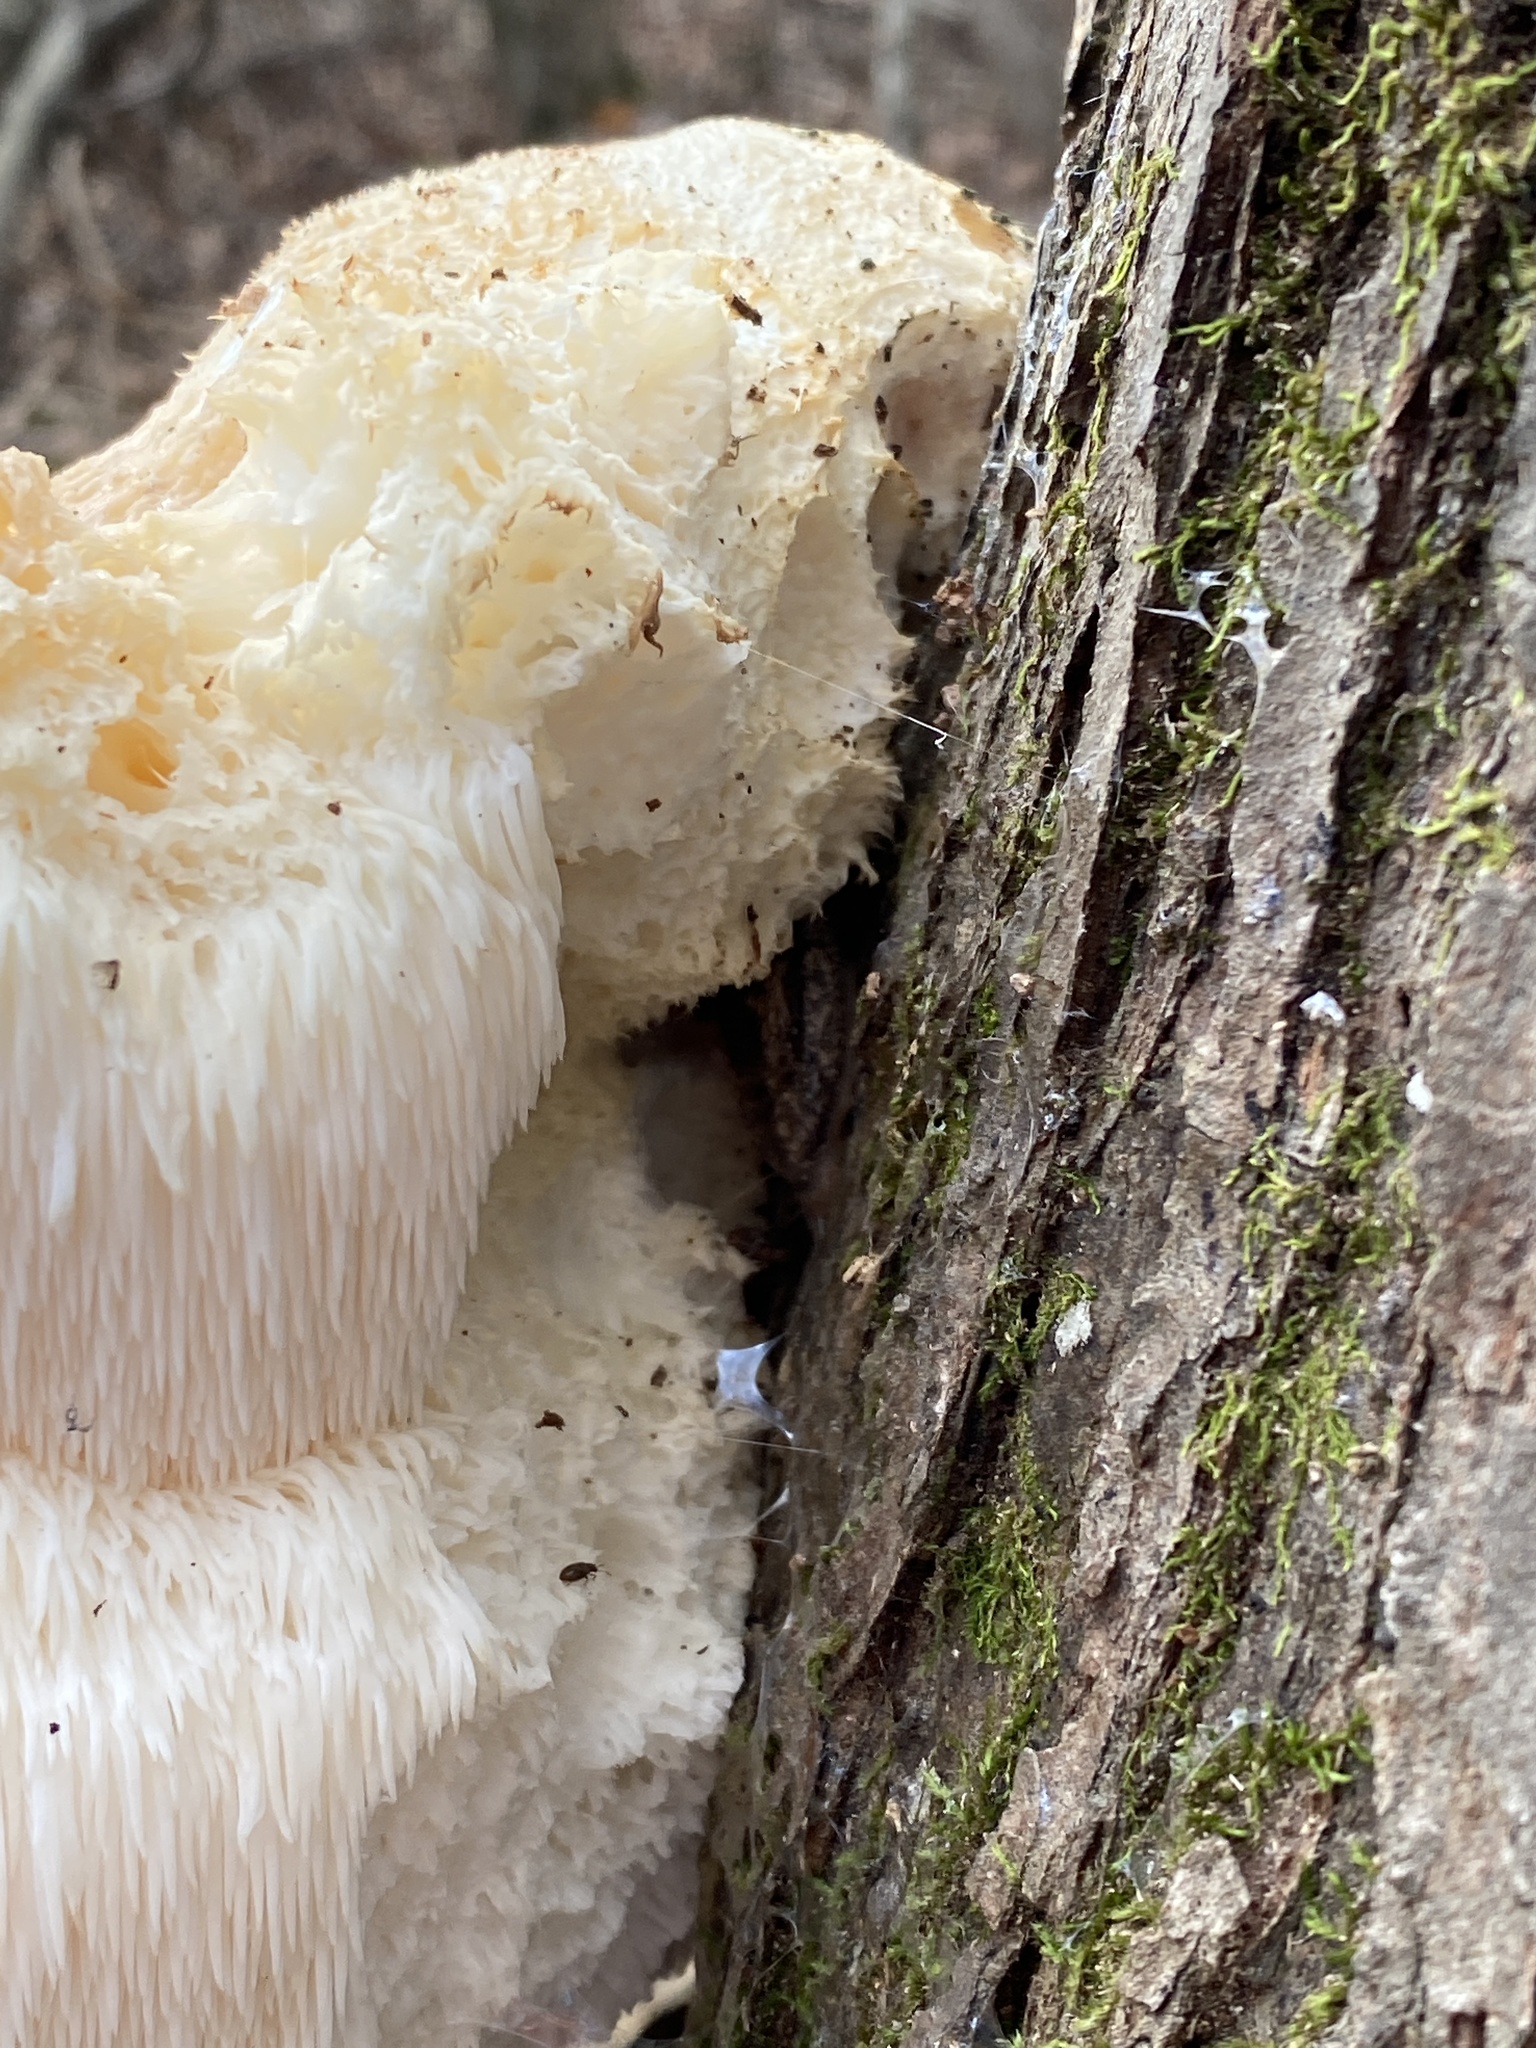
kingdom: Fungi
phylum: Basidiomycota
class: Agaricomycetes
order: Russulales
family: Hericiaceae
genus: Hericium
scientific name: Hericium erinaceus
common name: Bearded tooth
